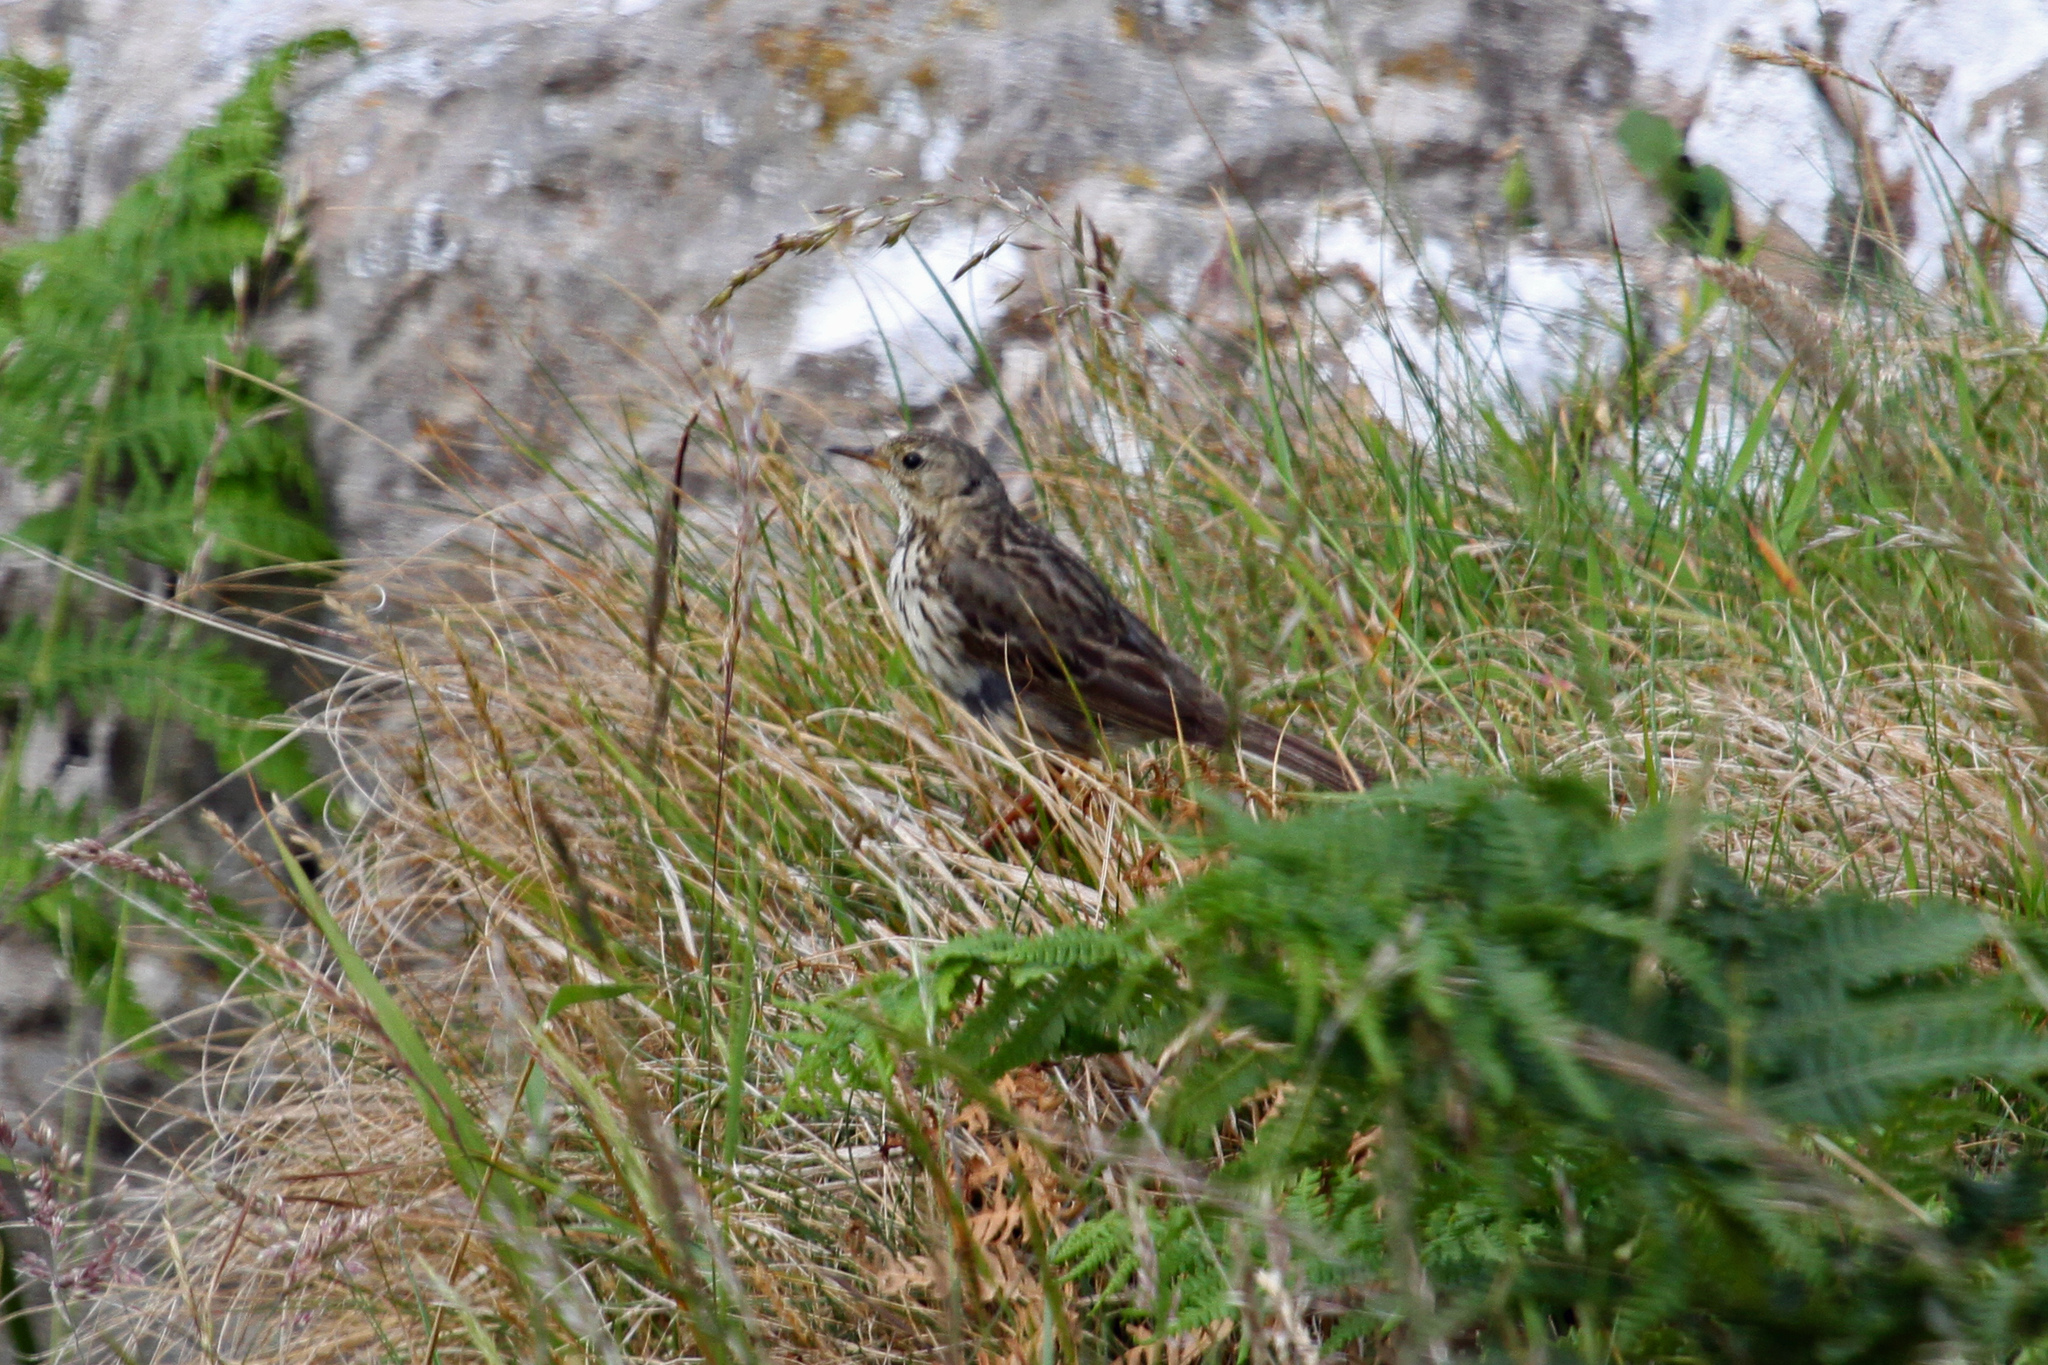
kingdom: Animalia
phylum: Chordata
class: Aves
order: Passeriformes
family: Motacillidae
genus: Anthus
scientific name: Anthus pratensis
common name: Meadow pipit
